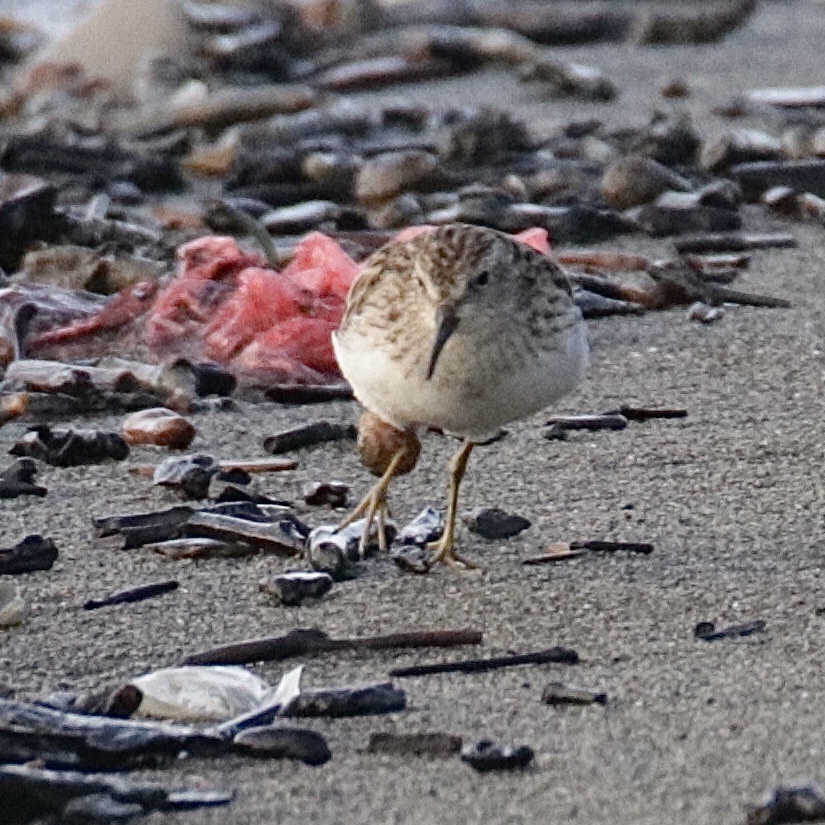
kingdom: Animalia
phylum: Chordata
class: Aves
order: Charadriiformes
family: Scolopacidae
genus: Calidris
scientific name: Calidris minutilla
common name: Least sandpiper
